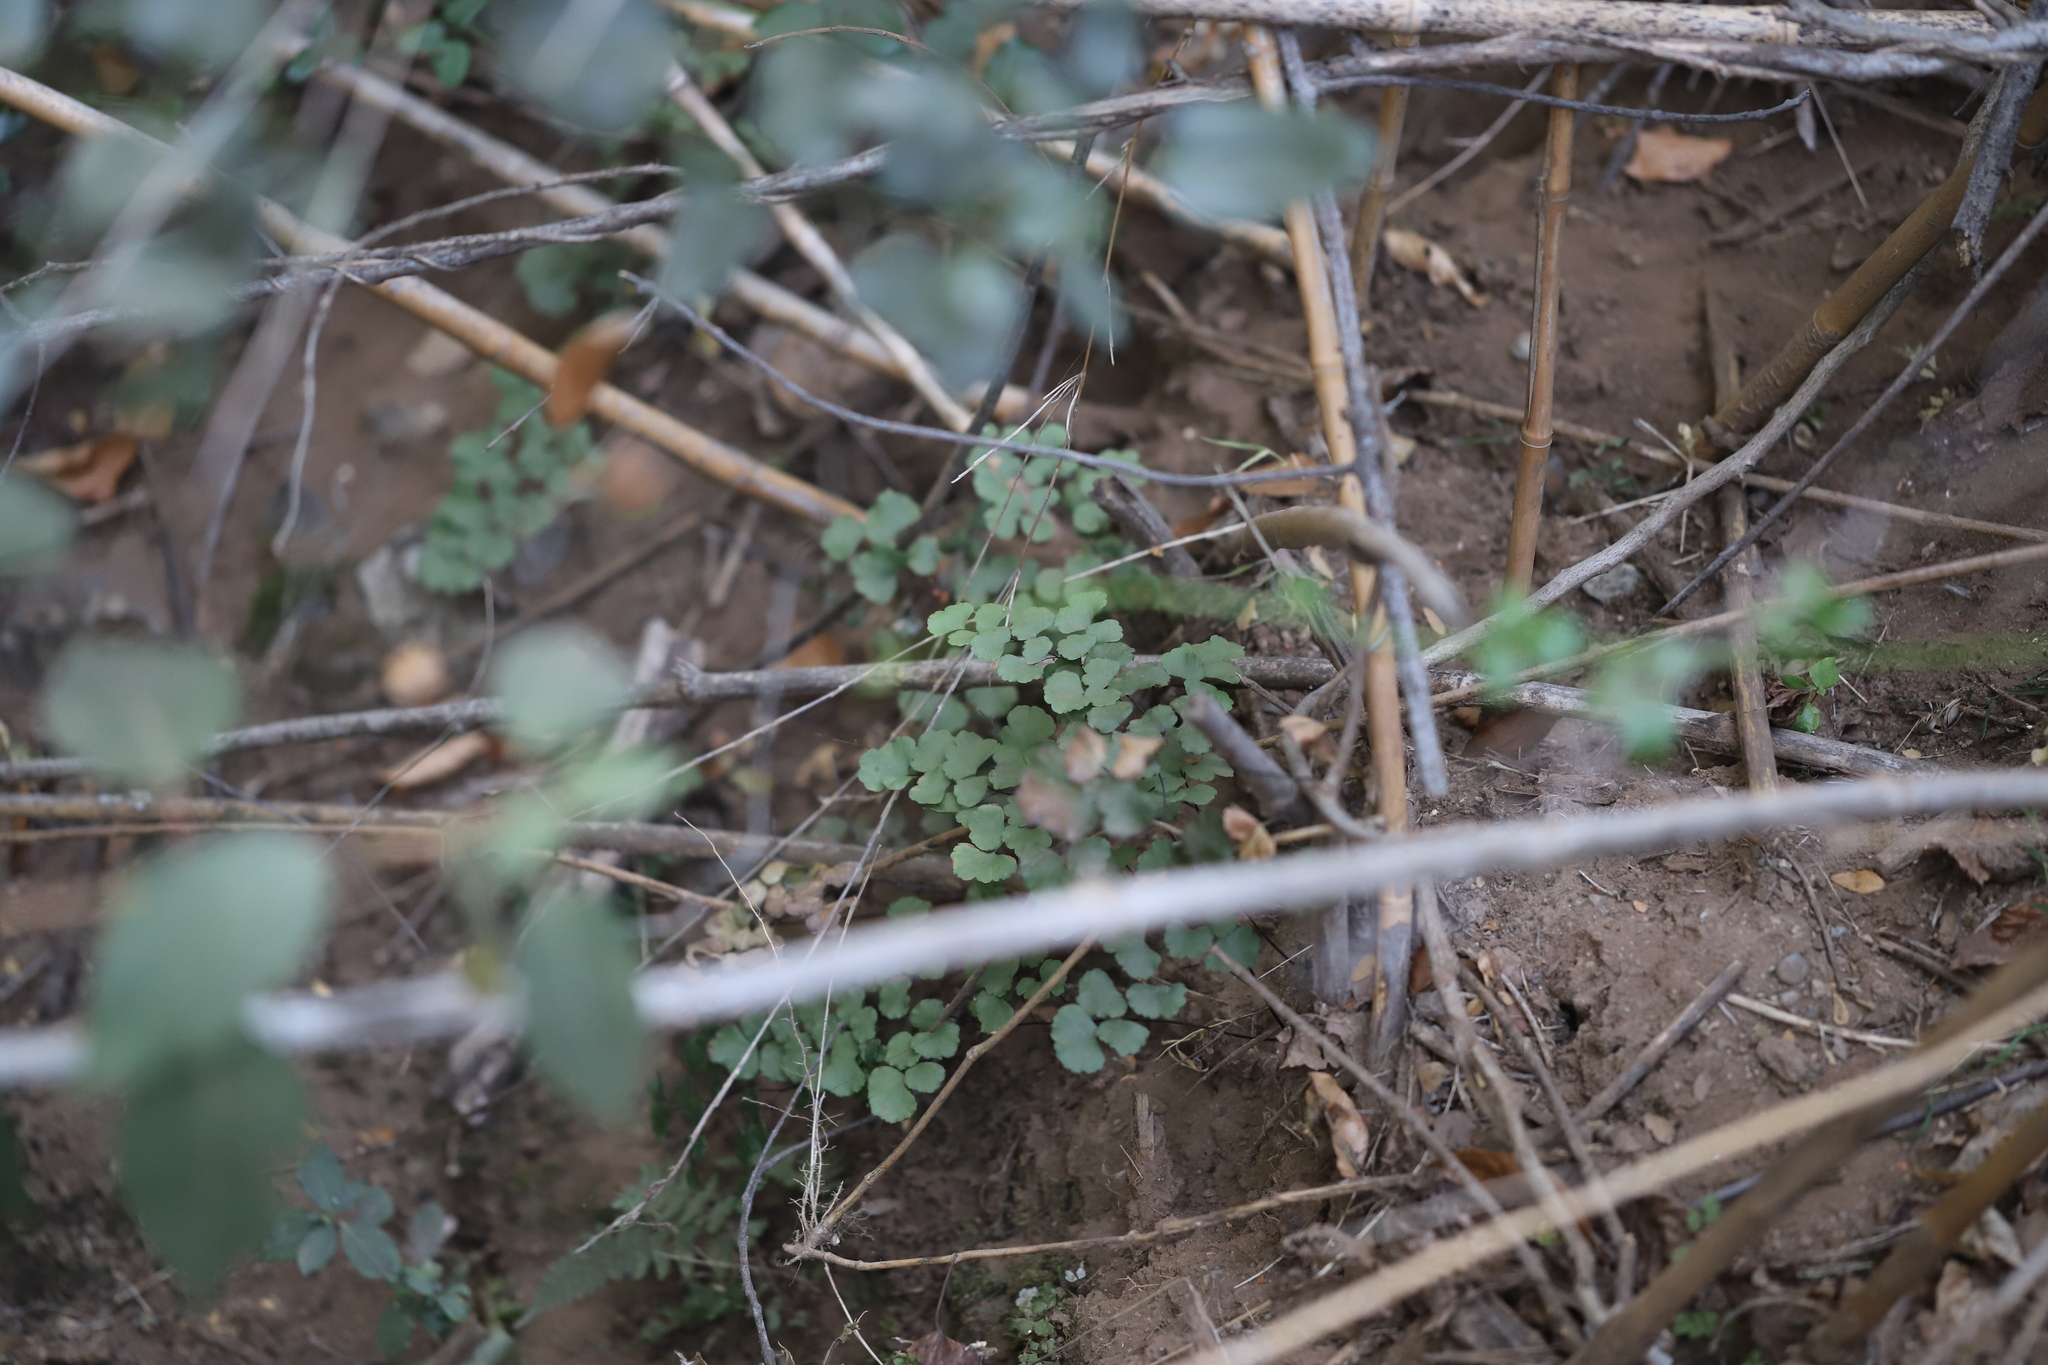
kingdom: Plantae
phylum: Tracheophyta
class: Polypodiopsida
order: Polypodiales
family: Pteridaceae
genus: Adiantum
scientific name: Adiantum chilense
